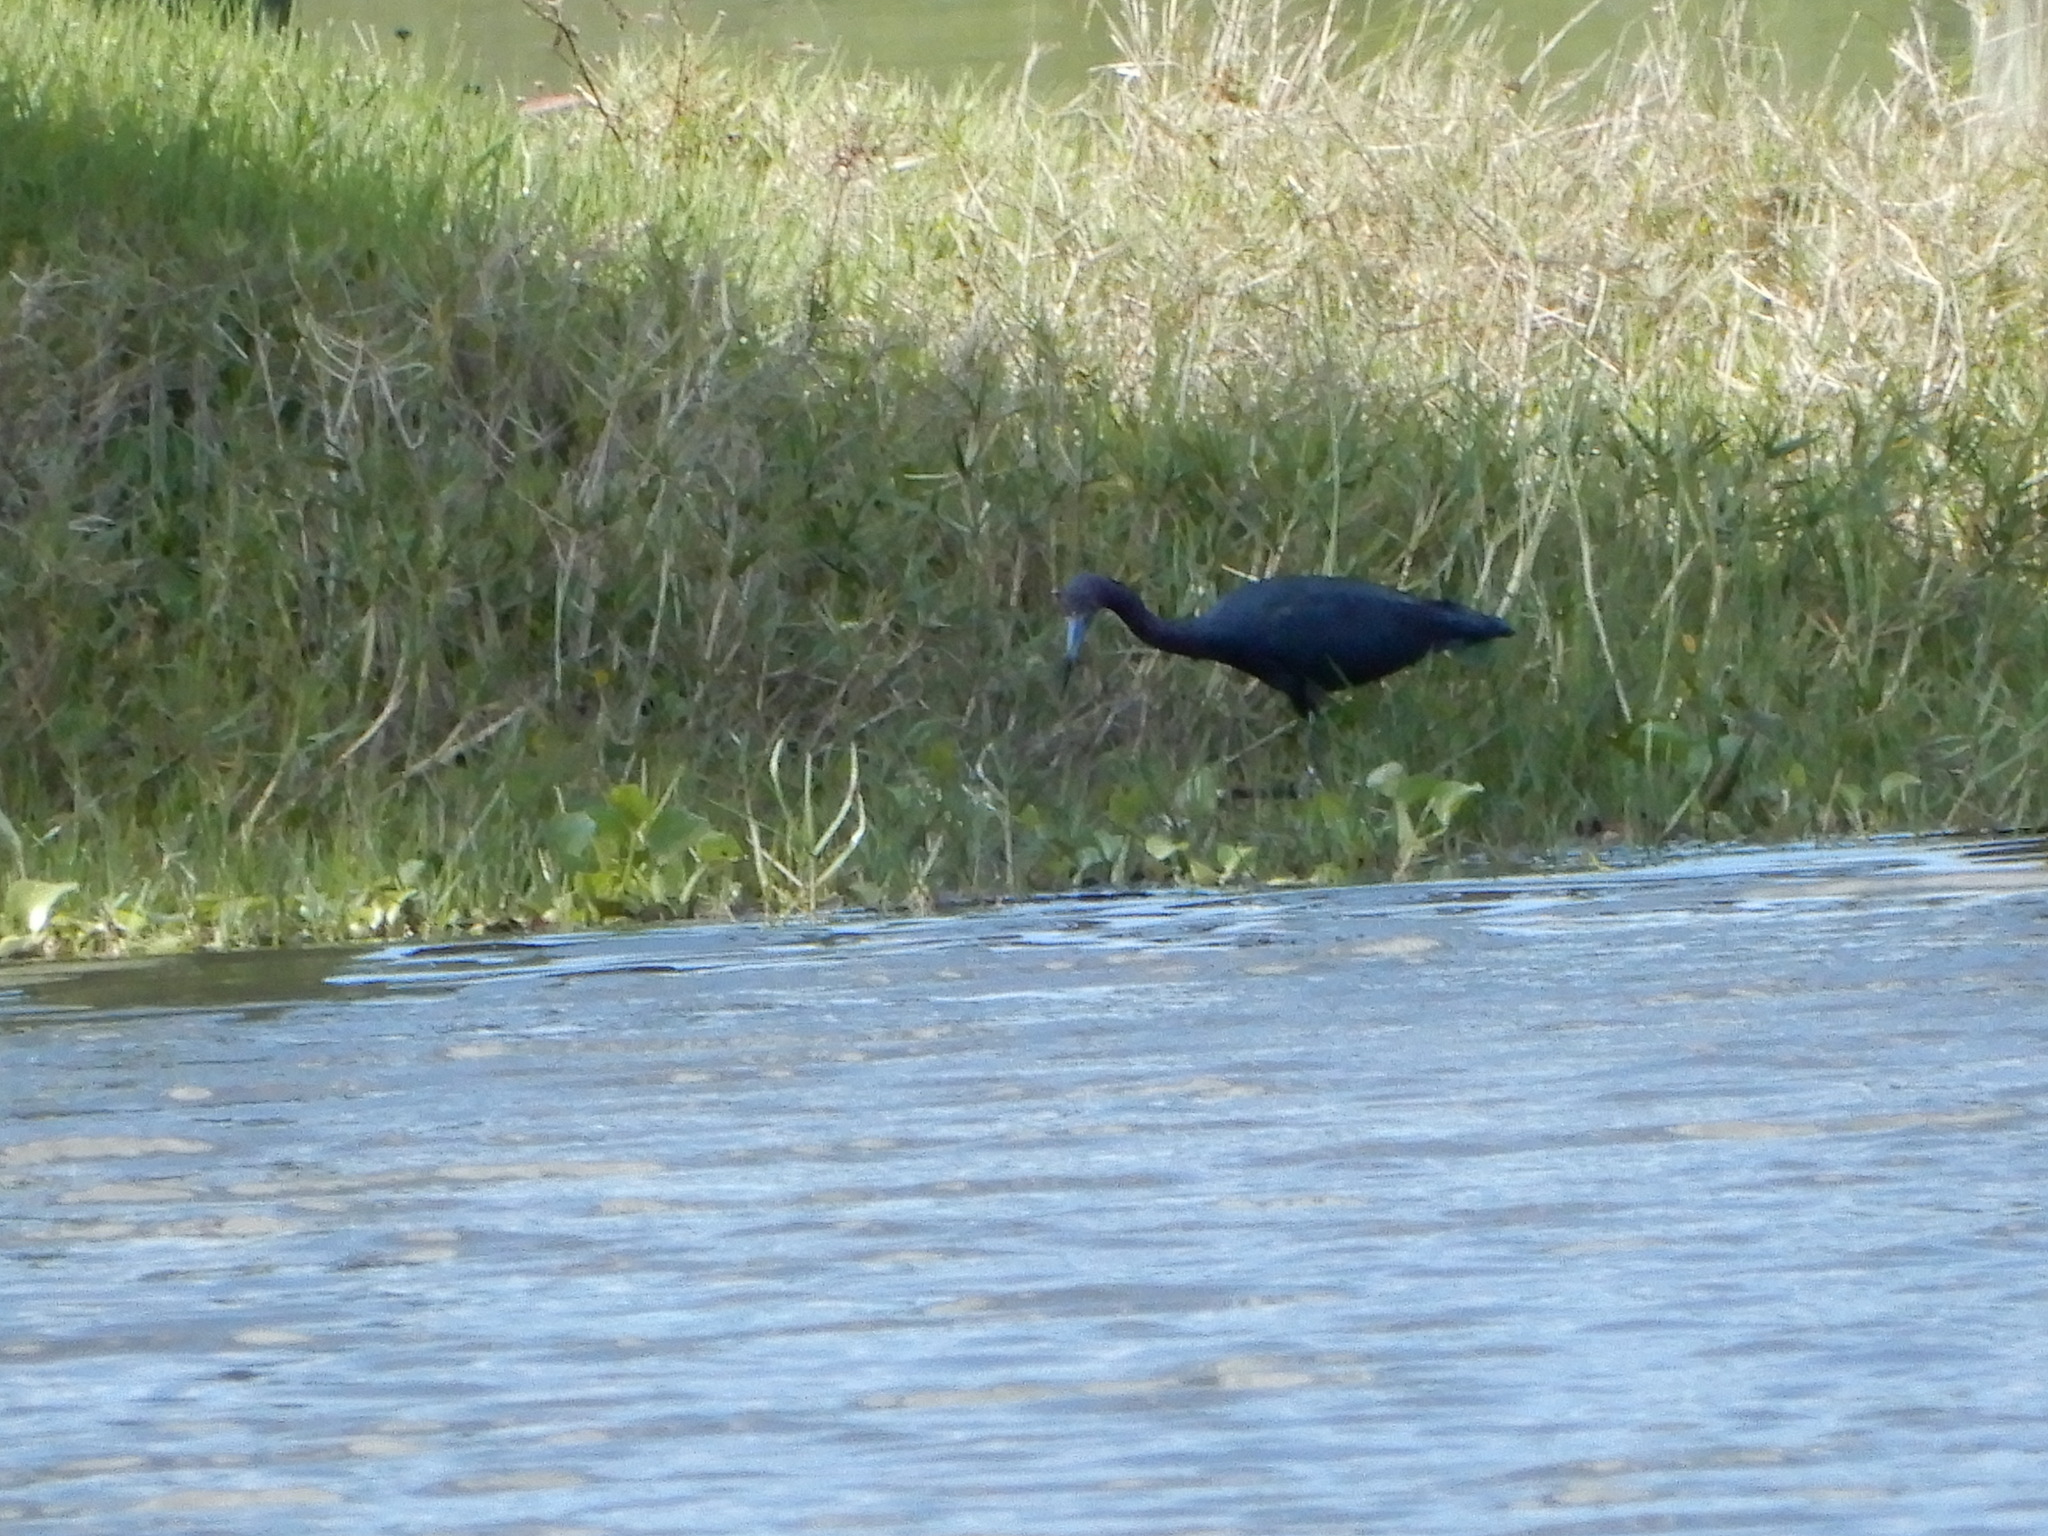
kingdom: Animalia
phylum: Chordata
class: Aves
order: Pelecaniformes
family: Ardeidae
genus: Egretta
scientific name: Egretta caerulea
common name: Little blue heron
